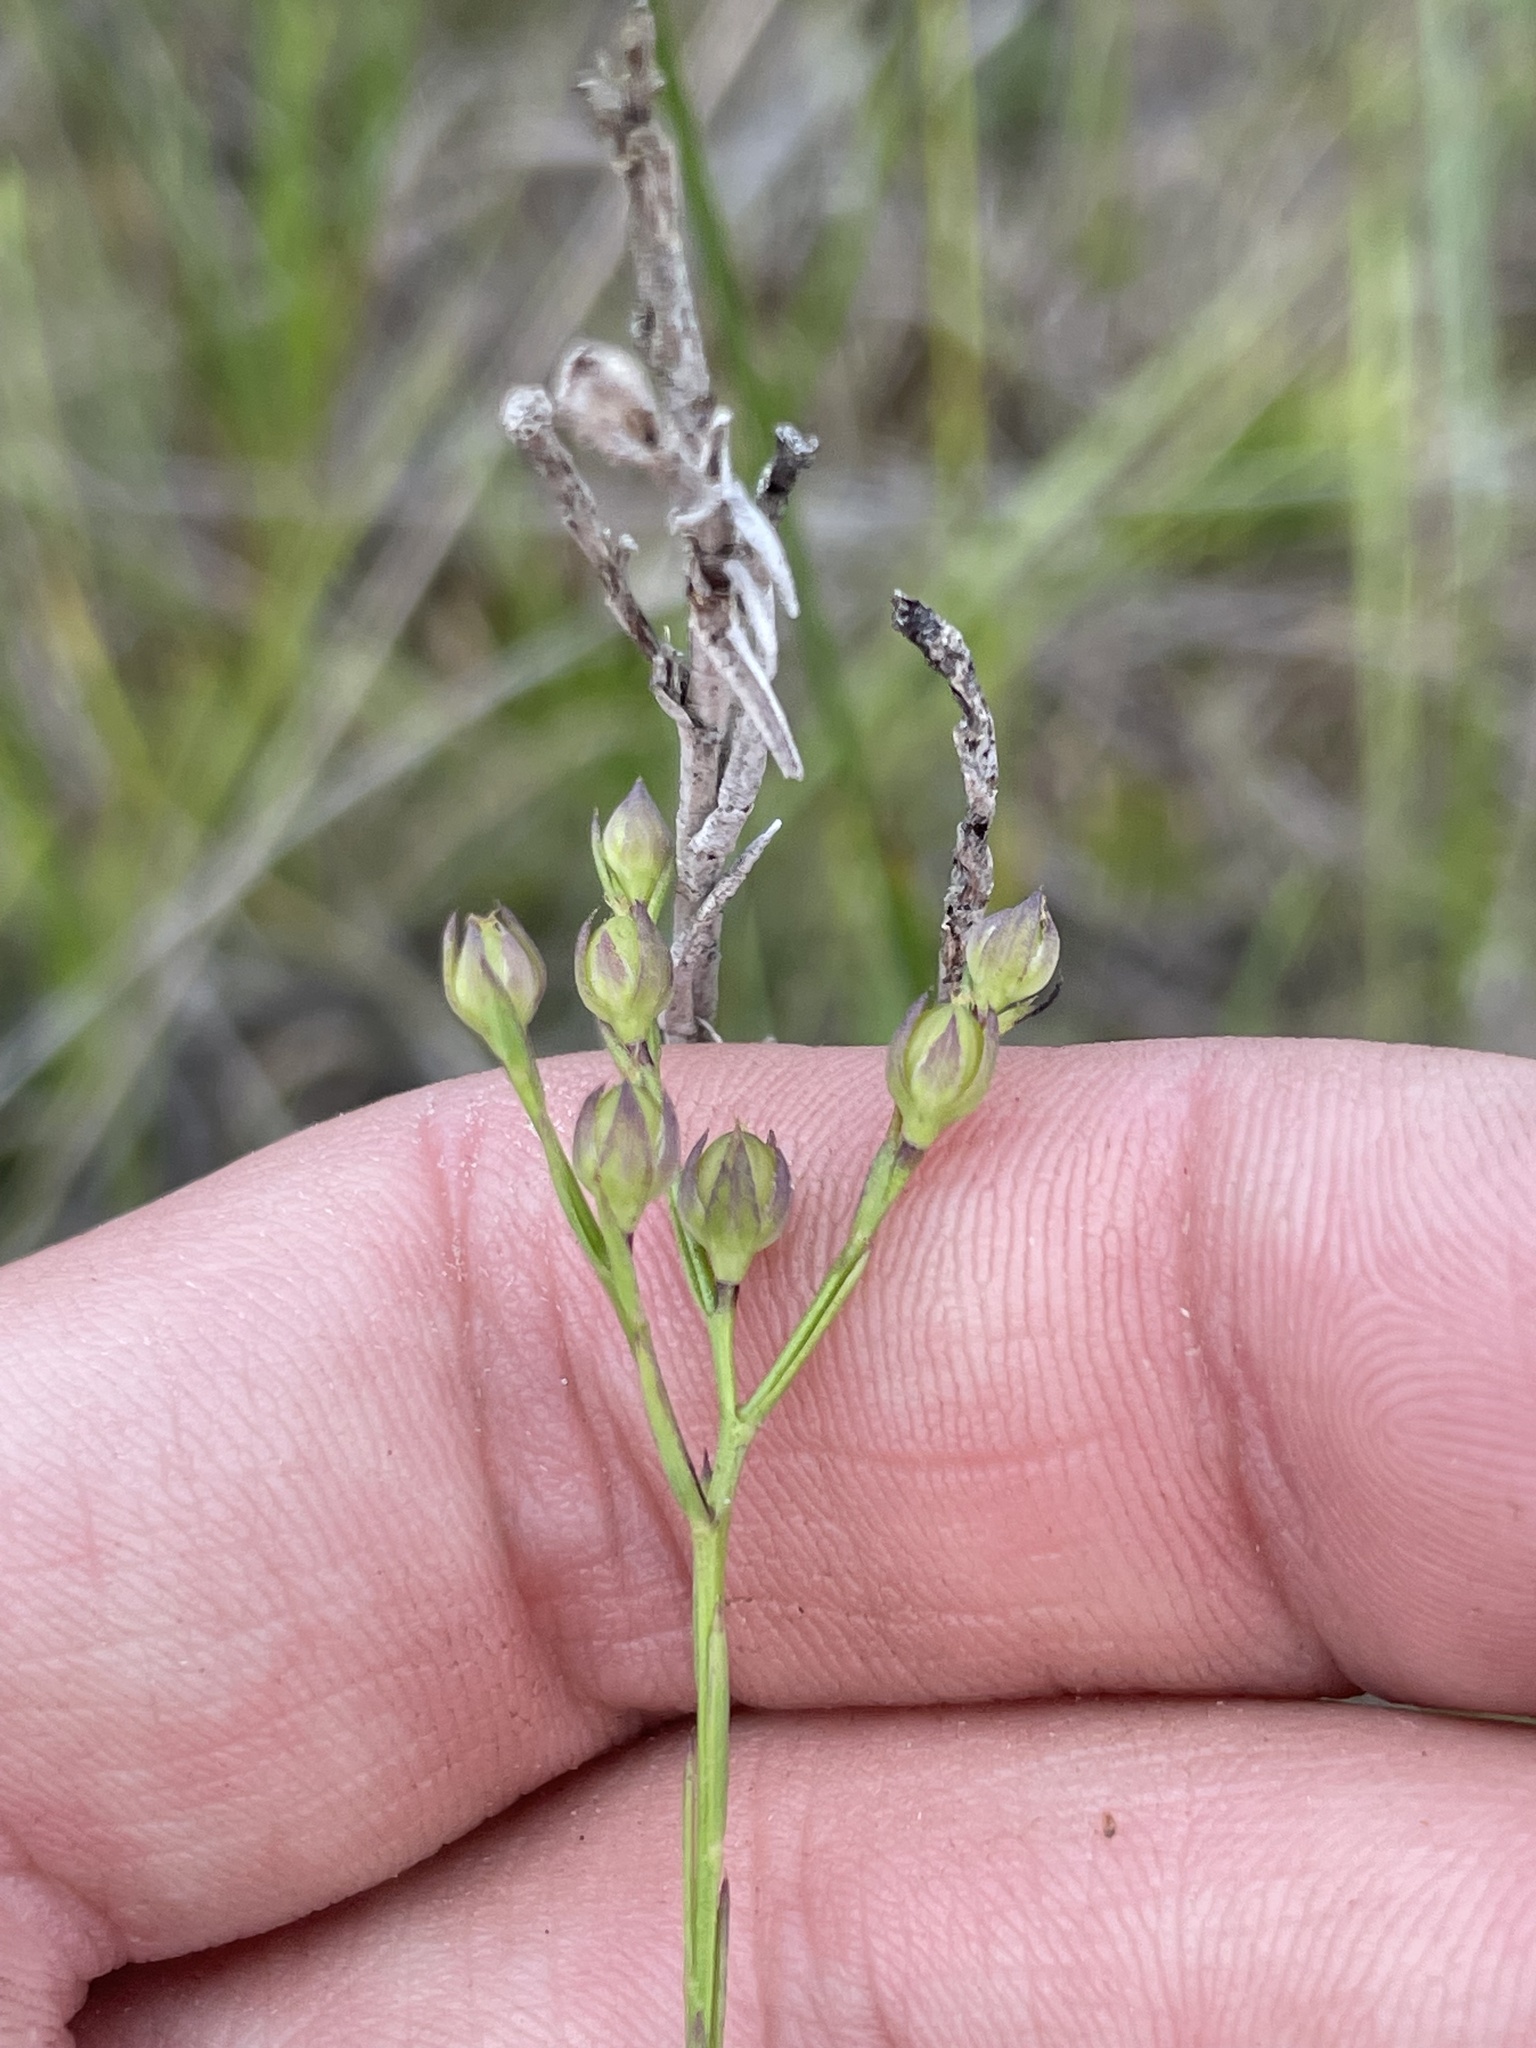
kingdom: Plantae
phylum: Tracheophyta
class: Magnoliopsida
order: Malpighiales
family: Linaceae
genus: Linum
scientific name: Linum macrocarpum
